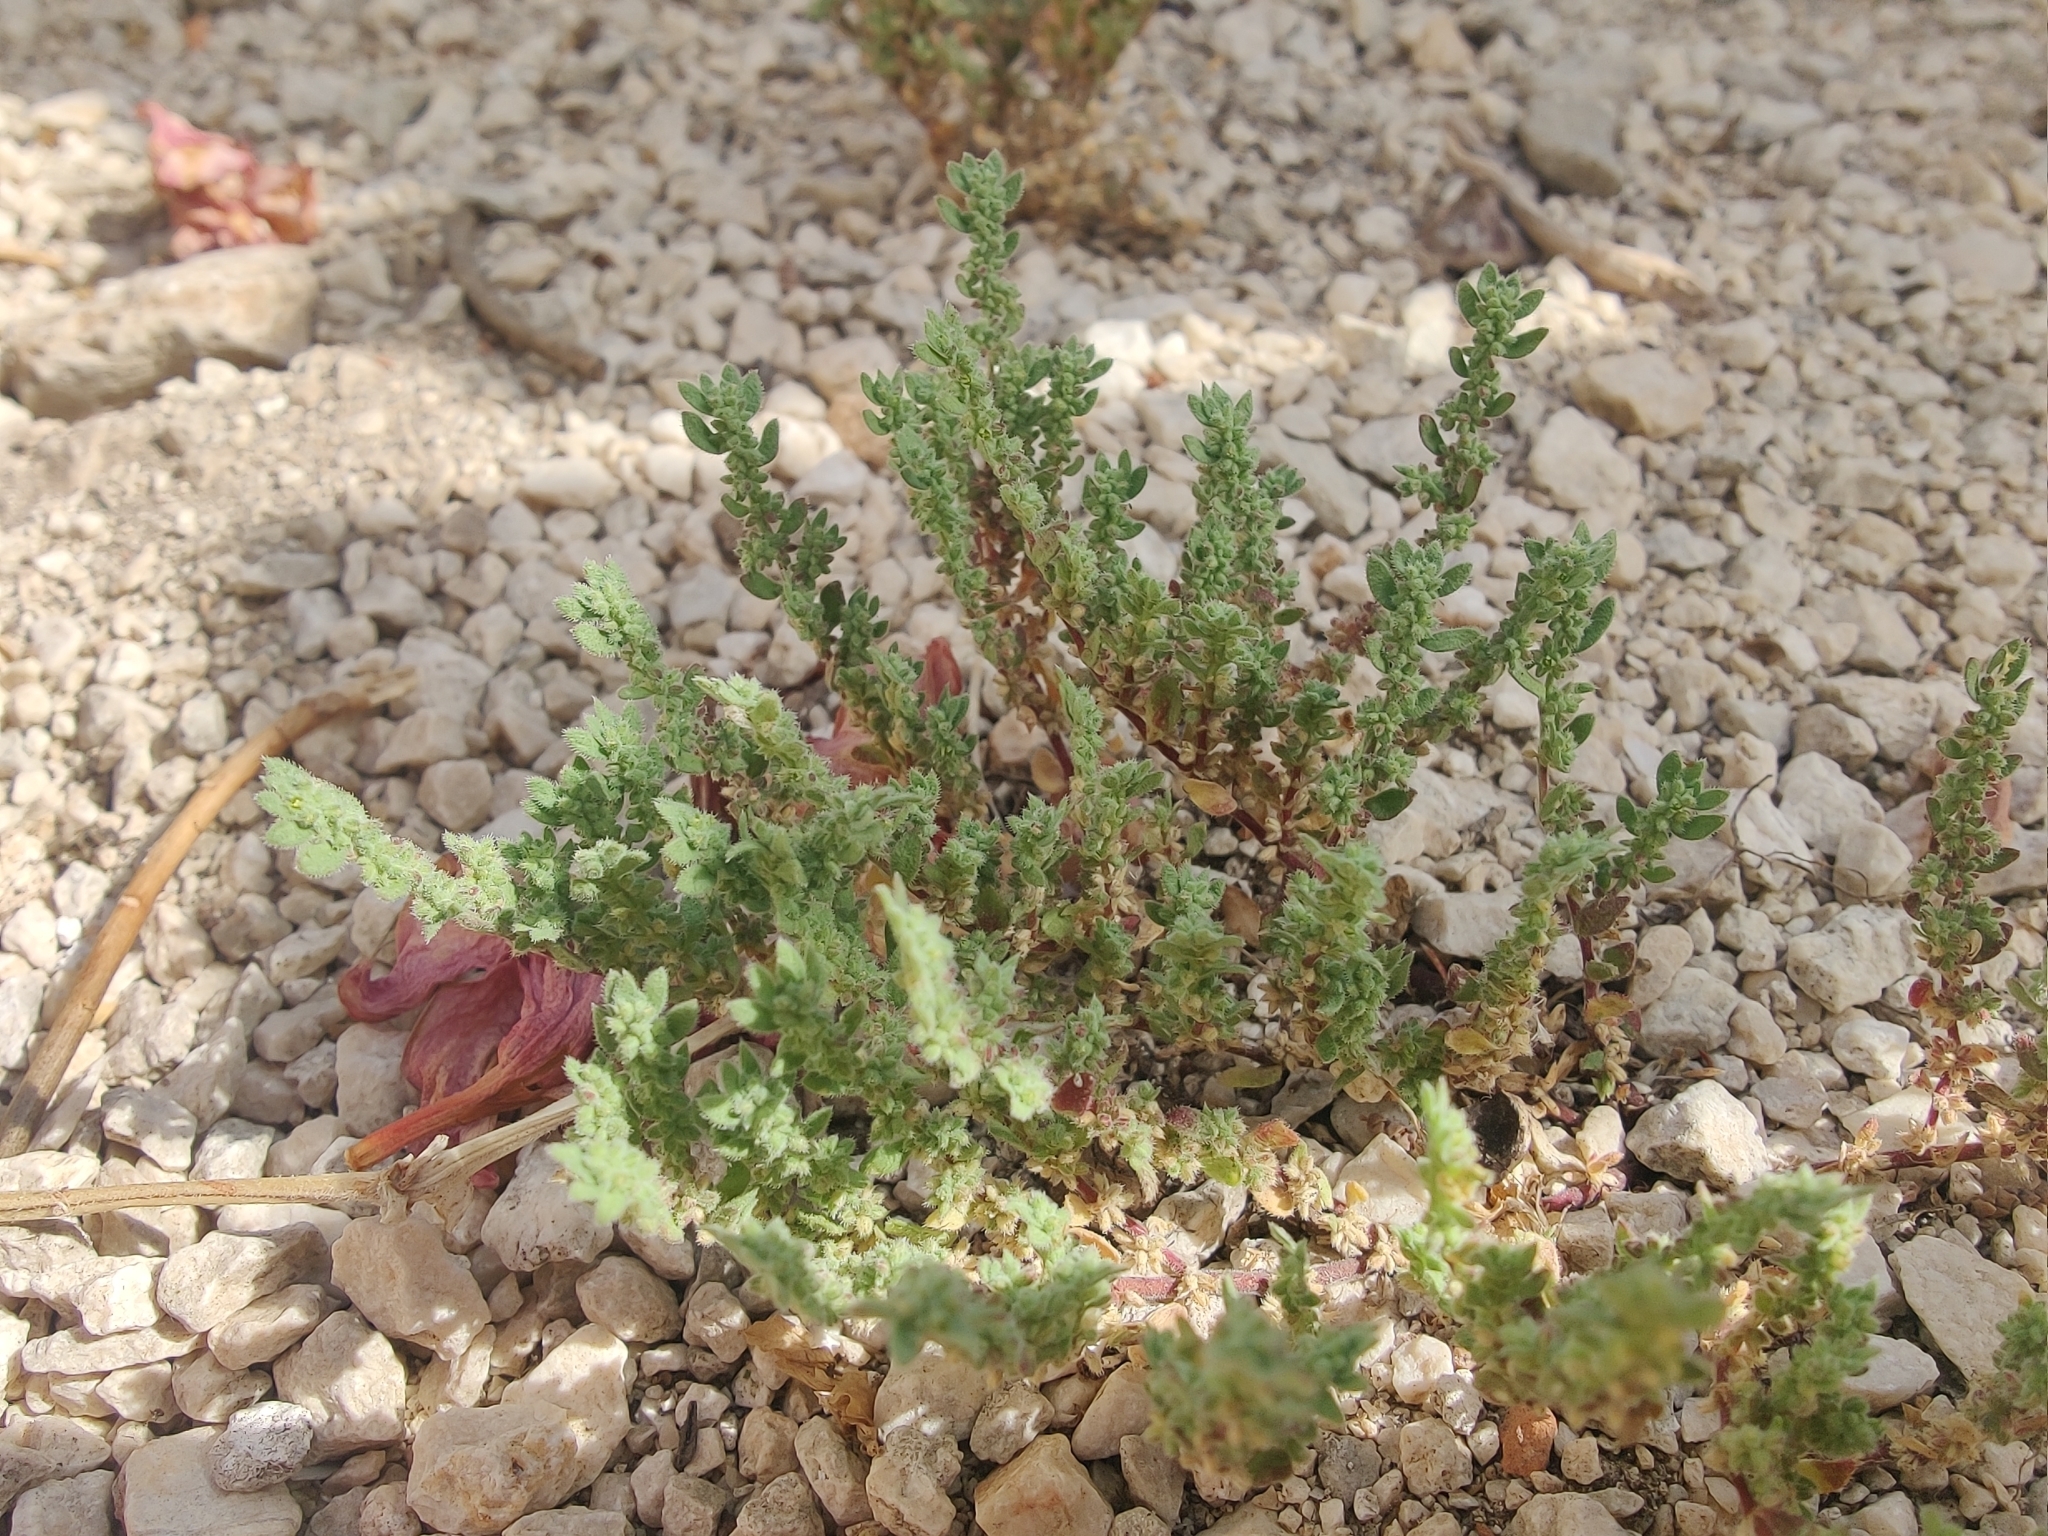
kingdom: Plantae
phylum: Tracheophyta
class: Magnoliopsida
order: Caryophyllales
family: Caryophyllaceae
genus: Herniaria
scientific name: Herniaria hirsuta
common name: Hairy rupturewort
